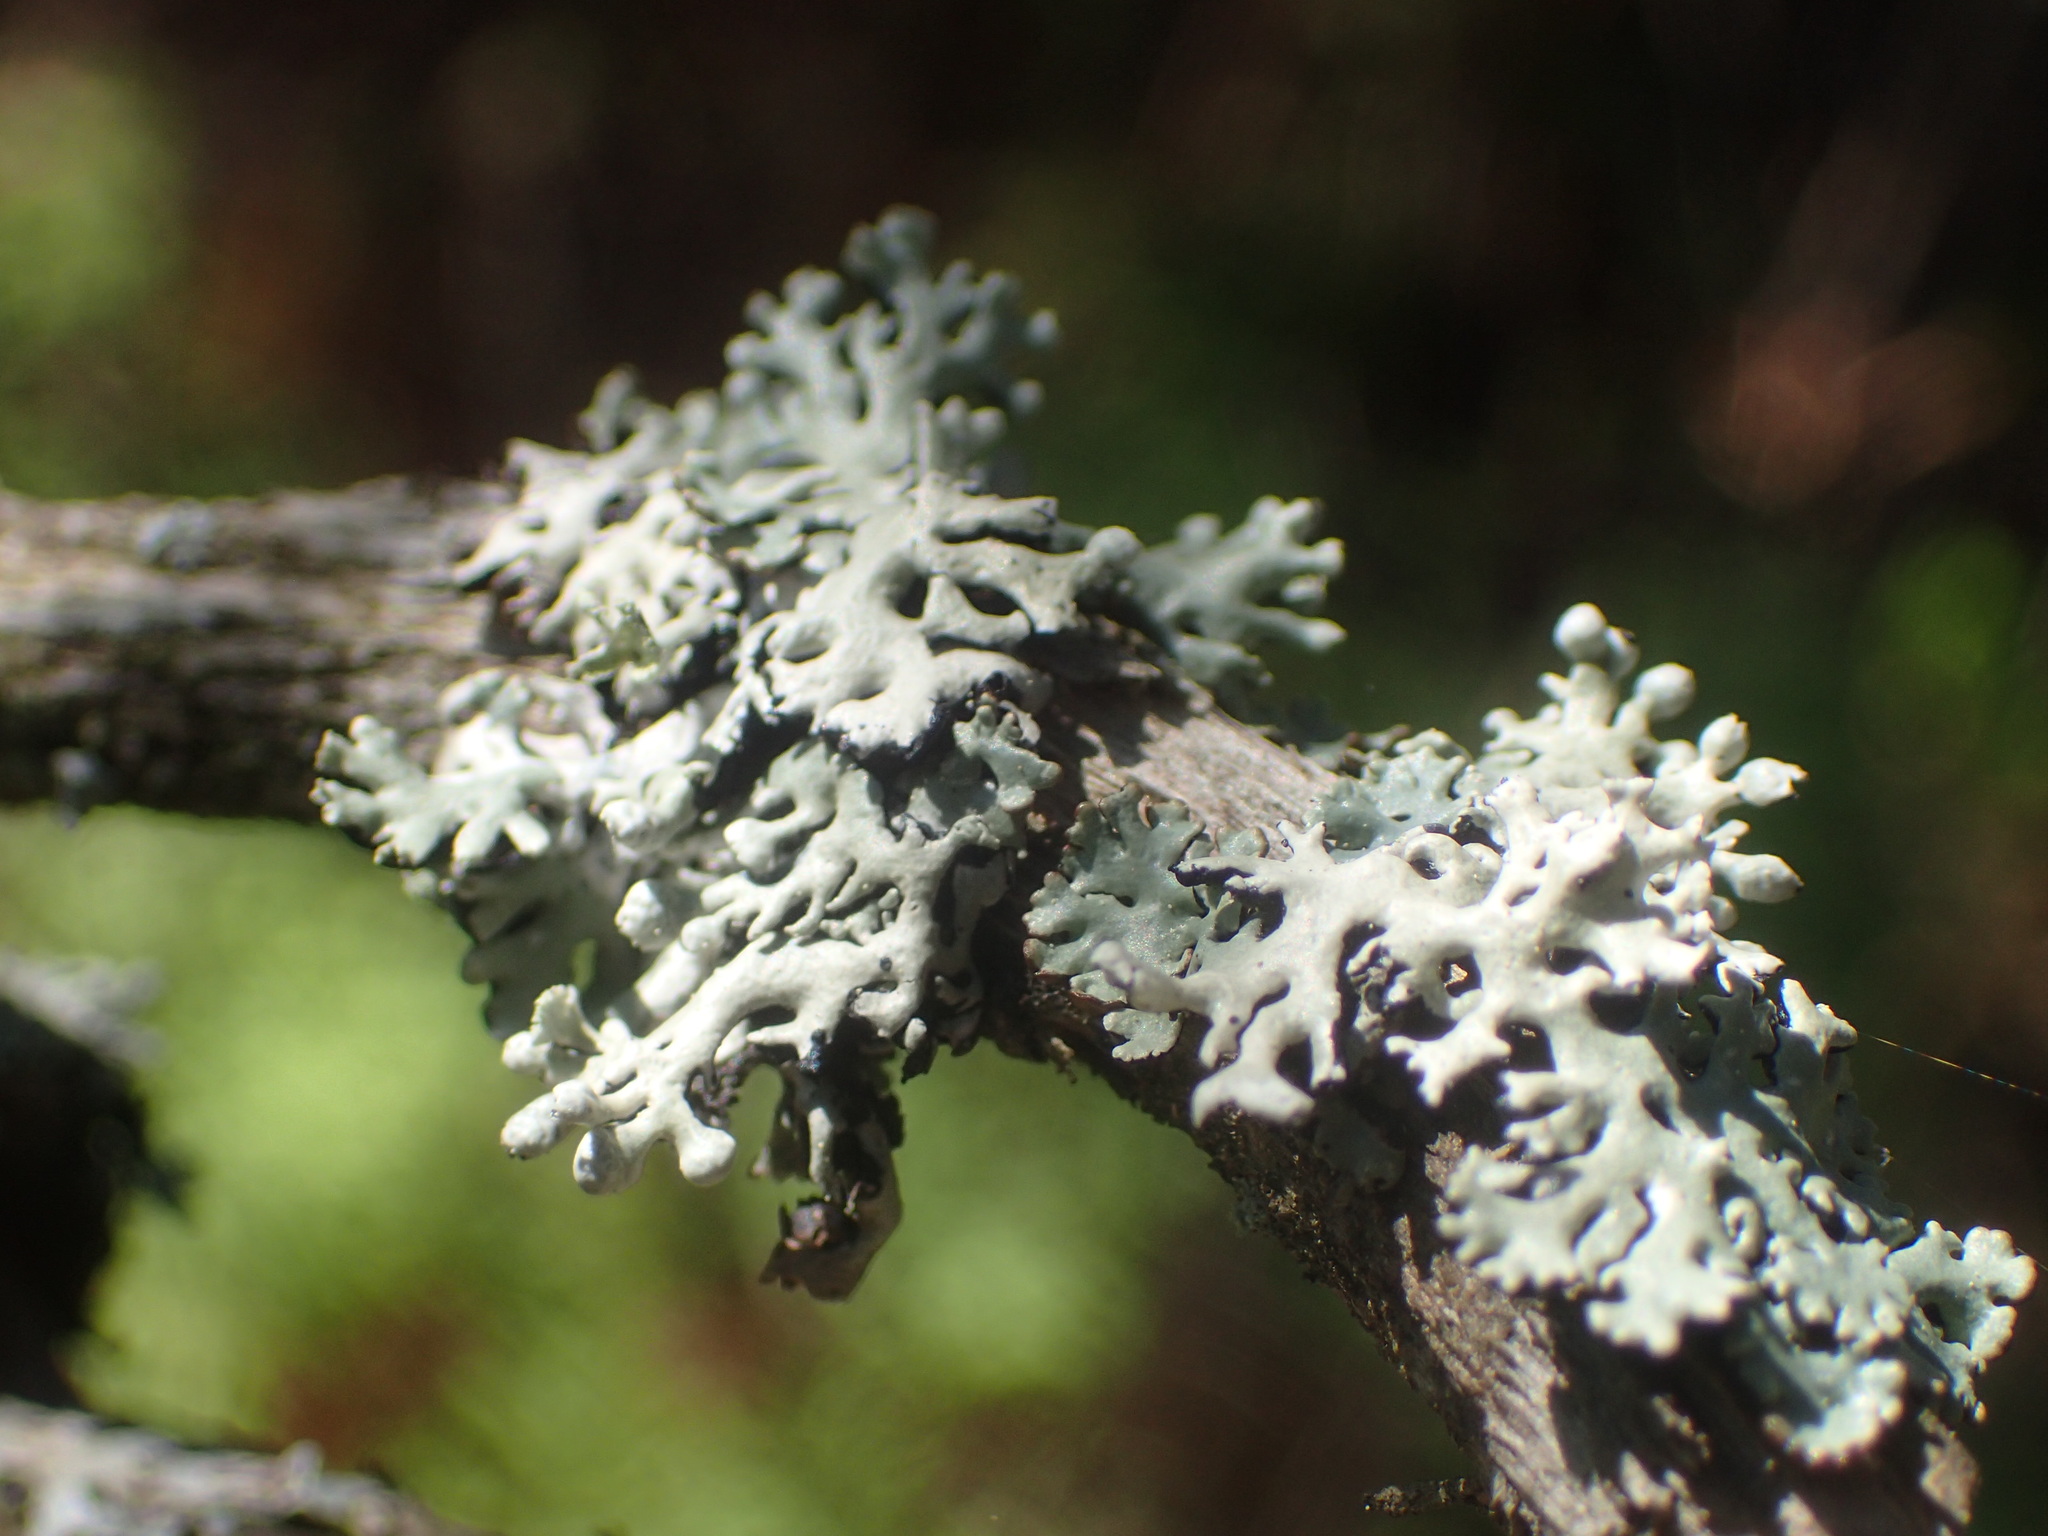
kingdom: Fungi
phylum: Ascomycota
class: Lecanoromycetes
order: Lecanorales
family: Parmeliaceae
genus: Hypogymnia
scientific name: Hypogymnia physodes
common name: Dark crottle
